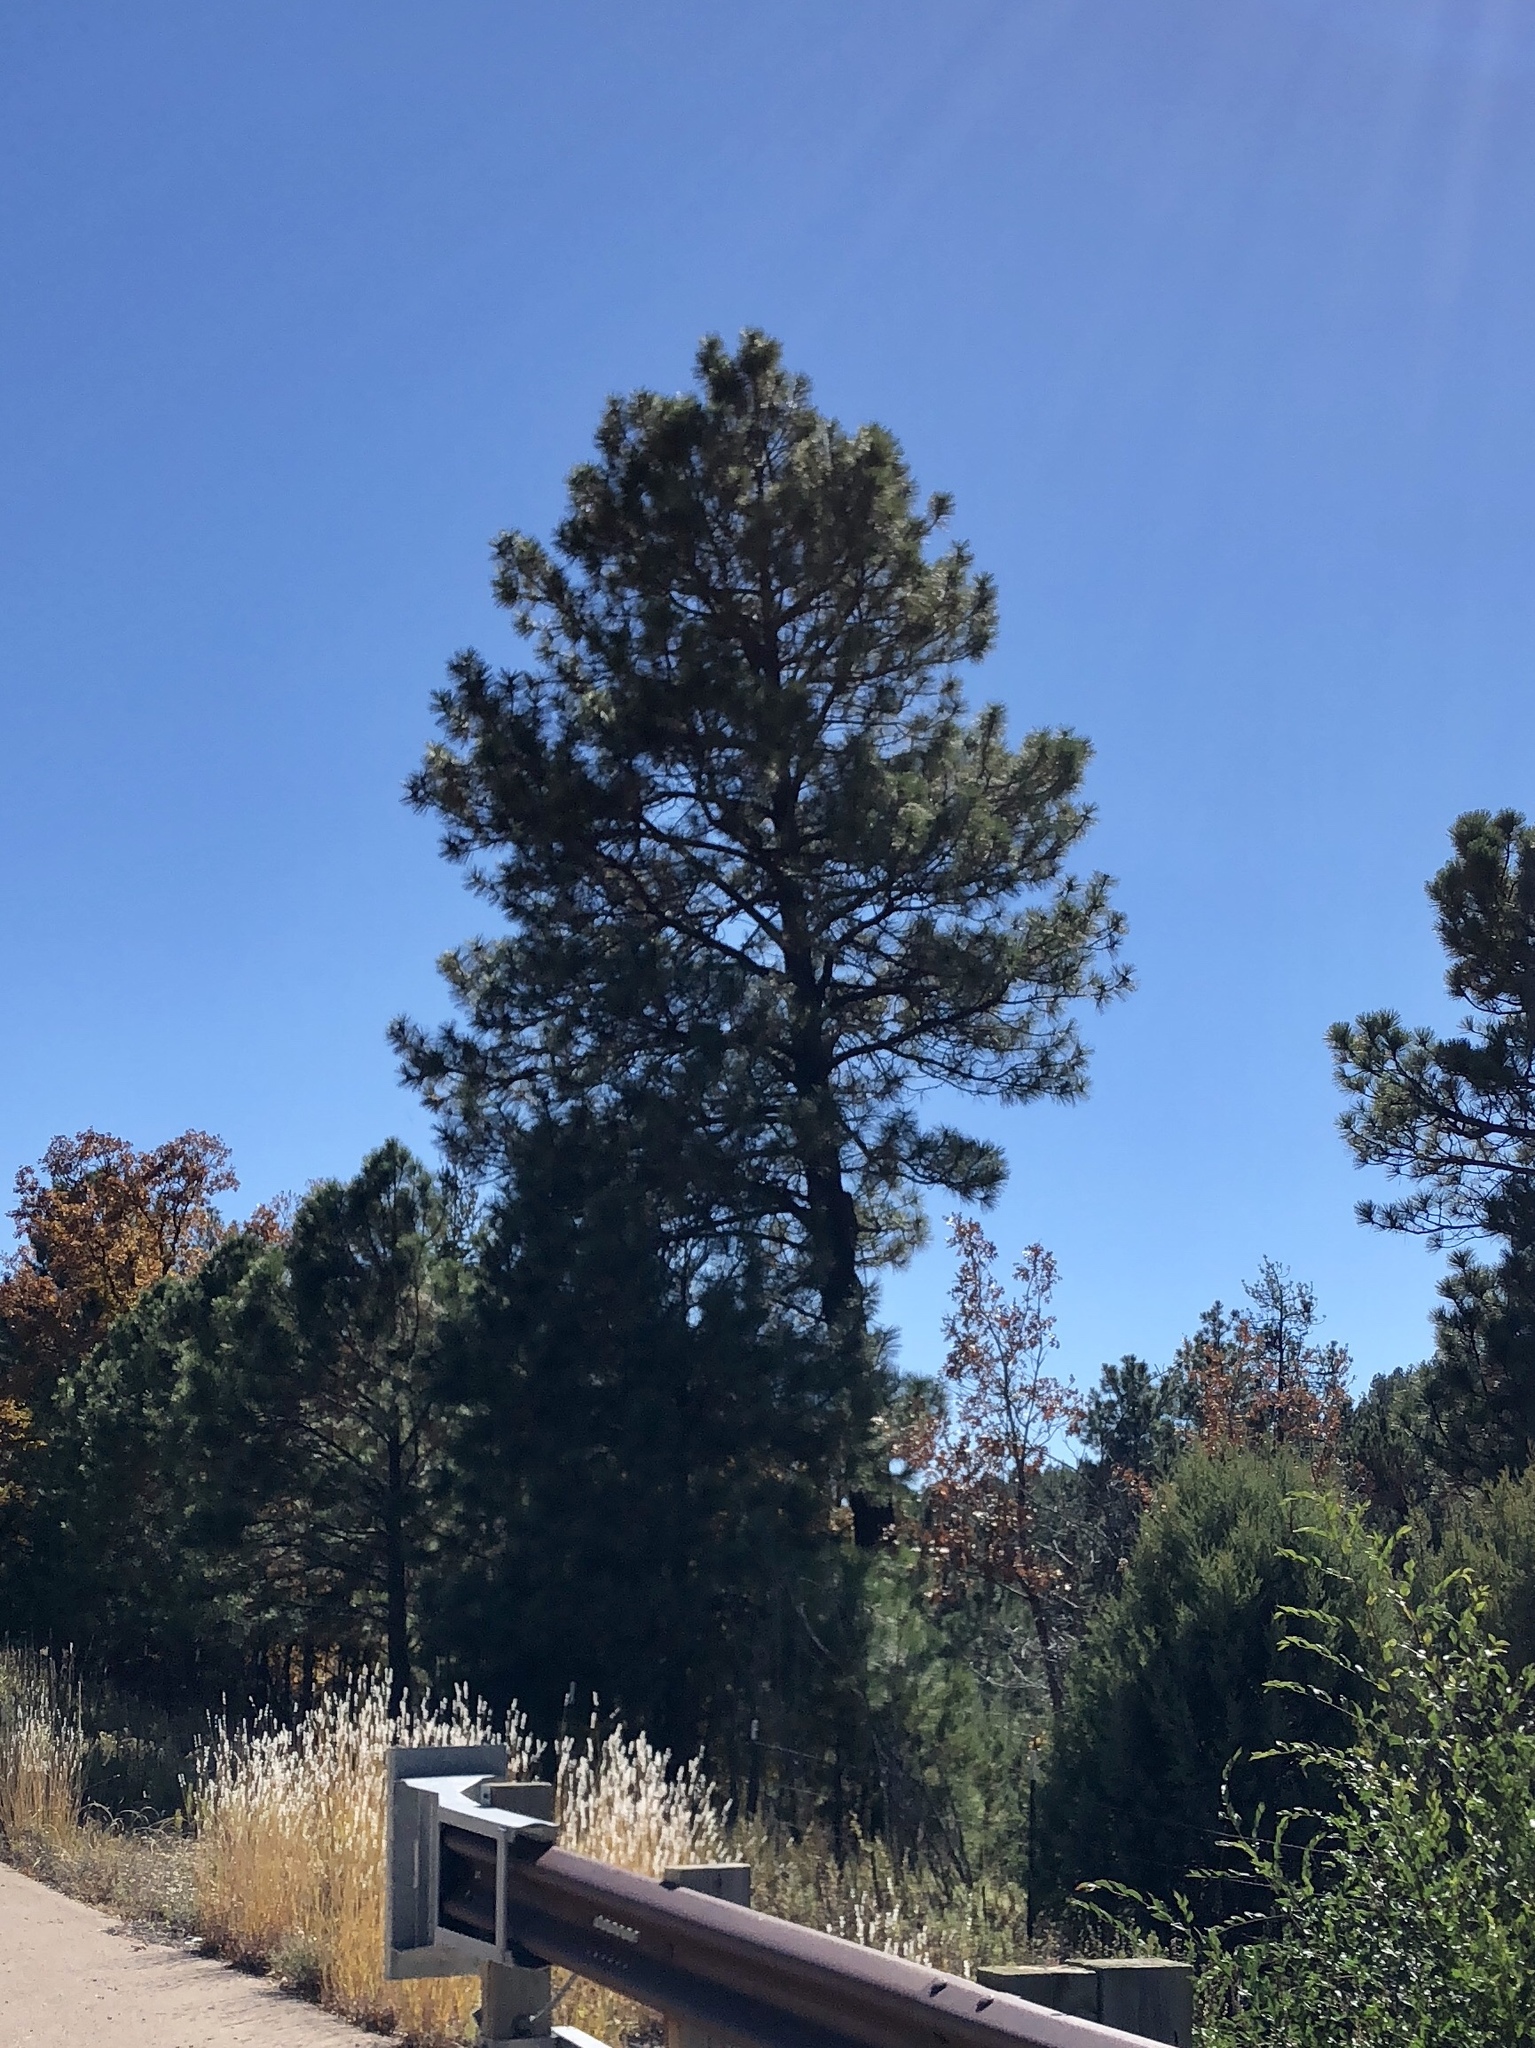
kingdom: Plantae
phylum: Tracheophyta
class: Pinopsida
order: Pinales
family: Pinaceae
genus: Pinus
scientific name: Pinus ponderosa
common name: Western yellow-pine
